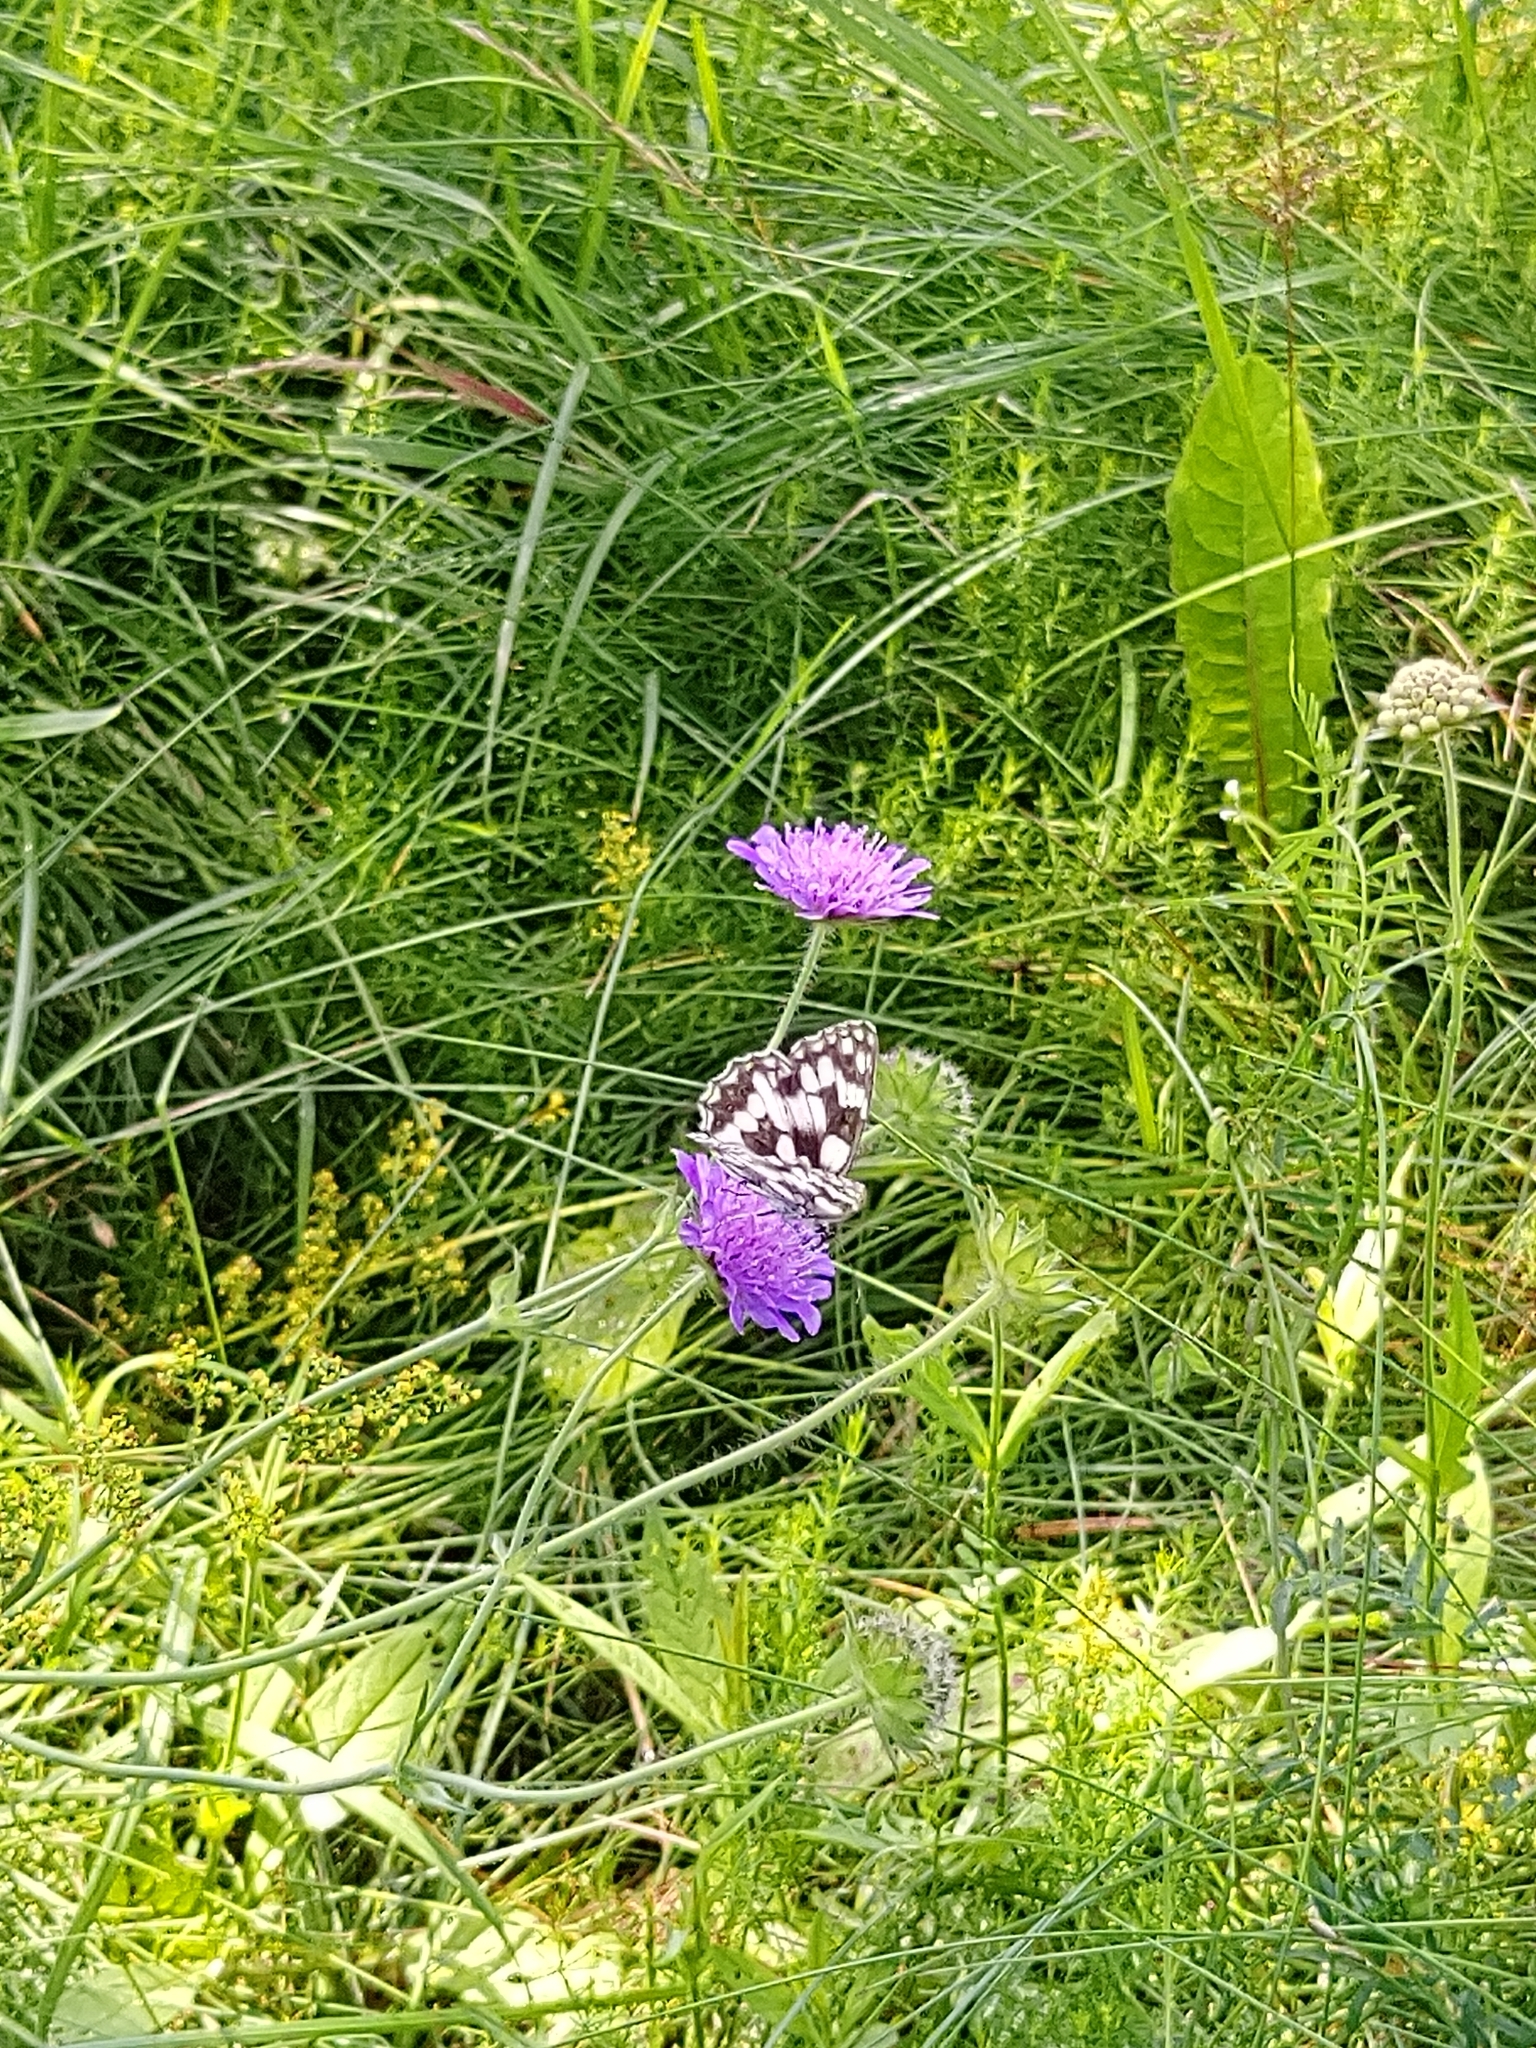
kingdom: Animalia
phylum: Arthropoda
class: Insecta
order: Lepidoptera
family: Nymphalidae
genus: Melanargia
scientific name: Melanargia galathea
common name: Marbled white
